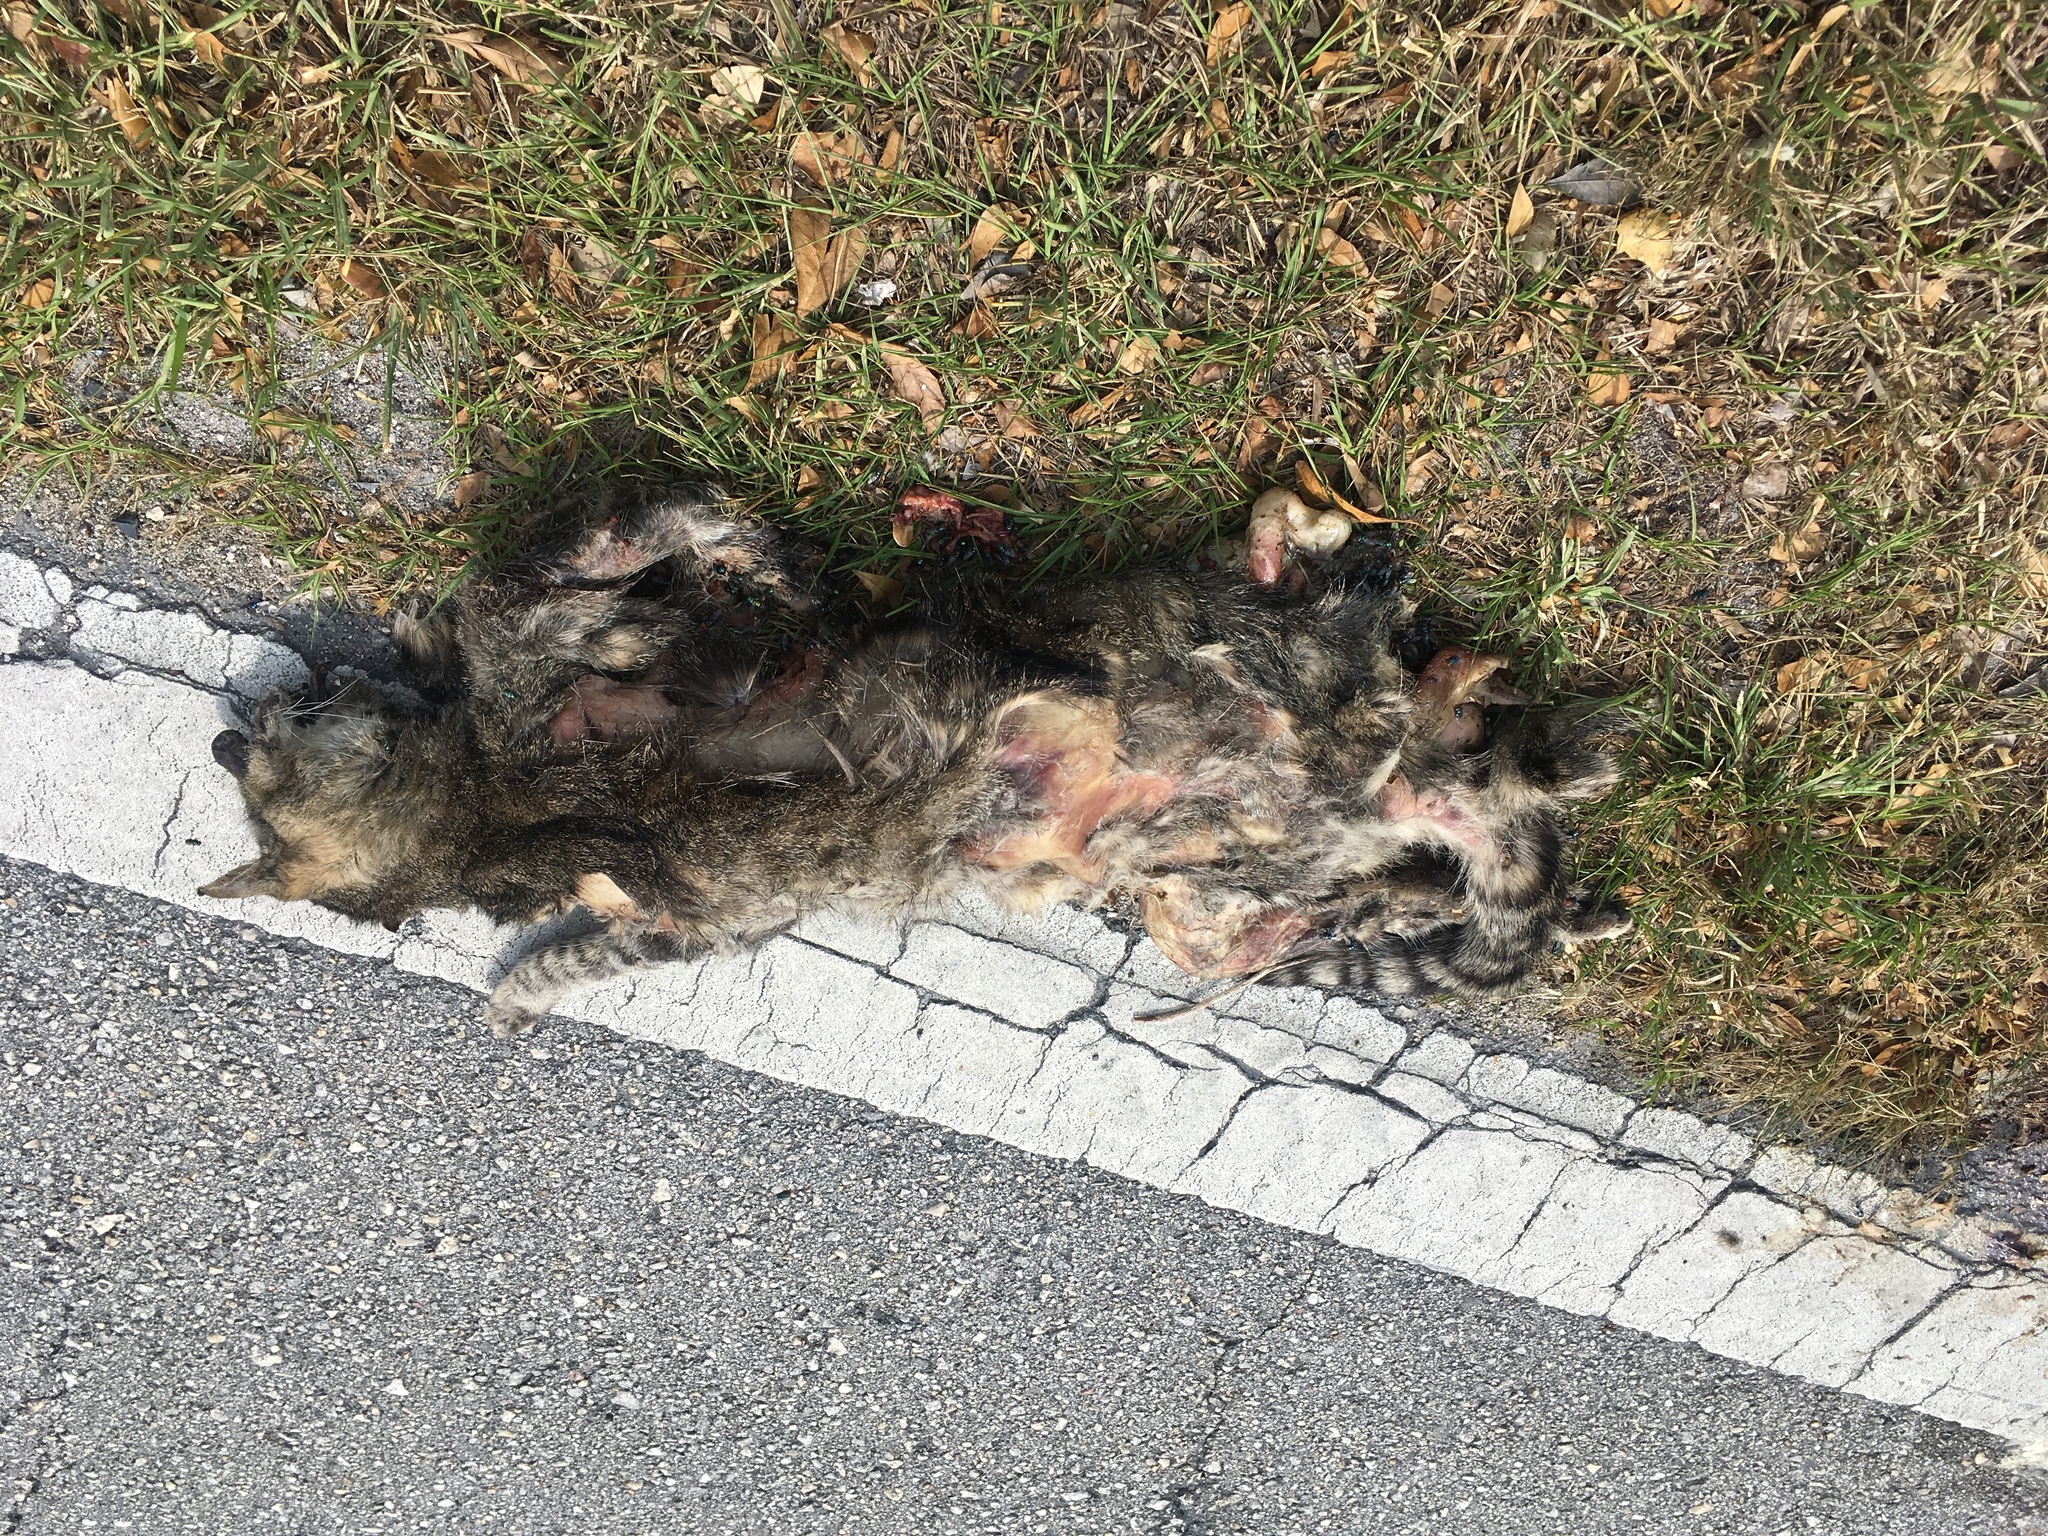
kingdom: Animalia
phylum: Chordata
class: Mammalia
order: Carnivora
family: Felidae
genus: Felis
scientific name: Felis catus
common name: Domestic cat
